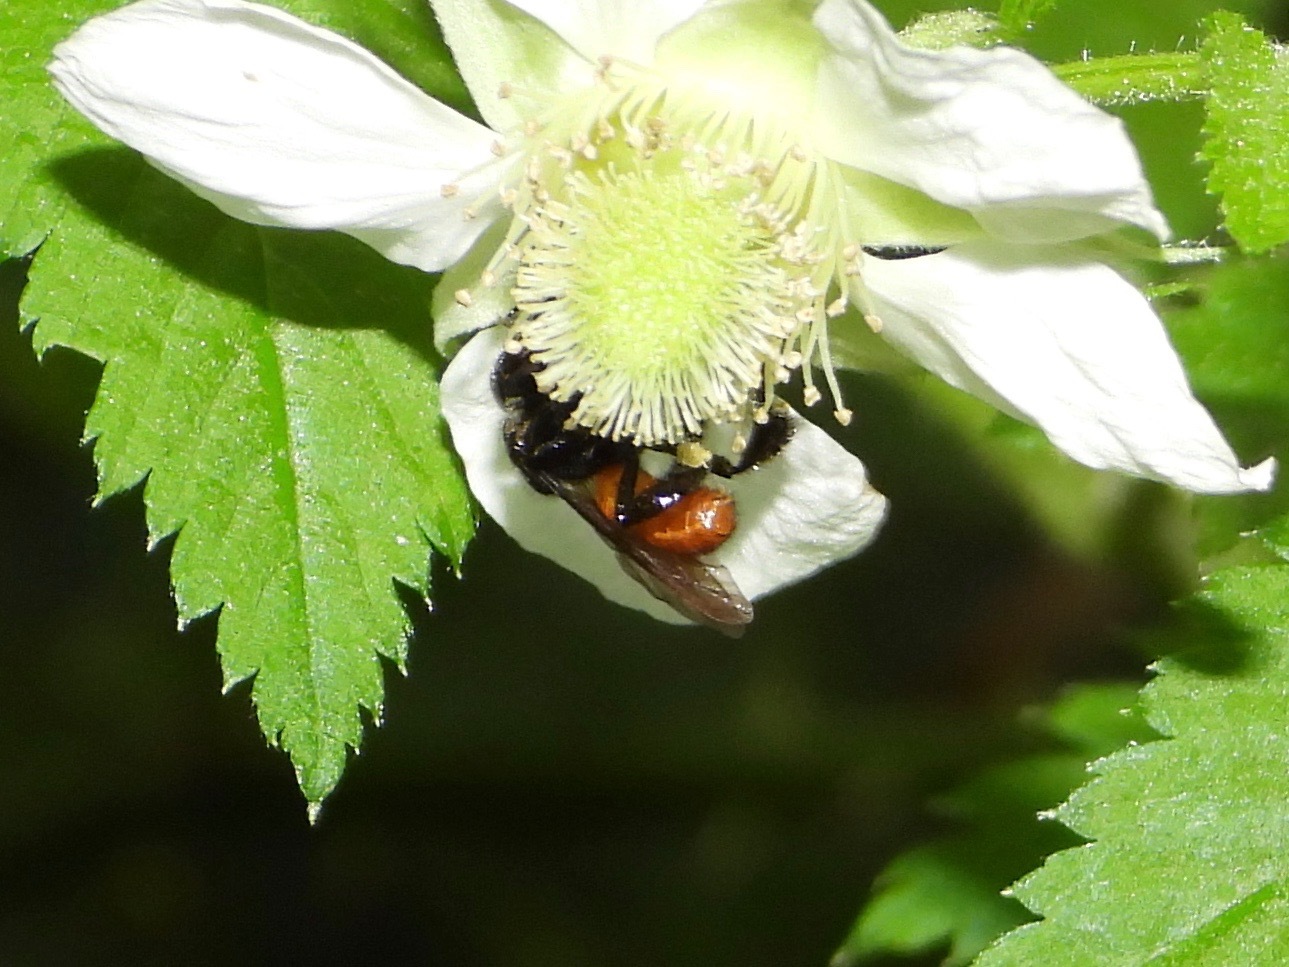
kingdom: Animalia
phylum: Arthropoda
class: Insecta
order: Hymenoptera
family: Apidae
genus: Trigona
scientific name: Trigona fulviventris
